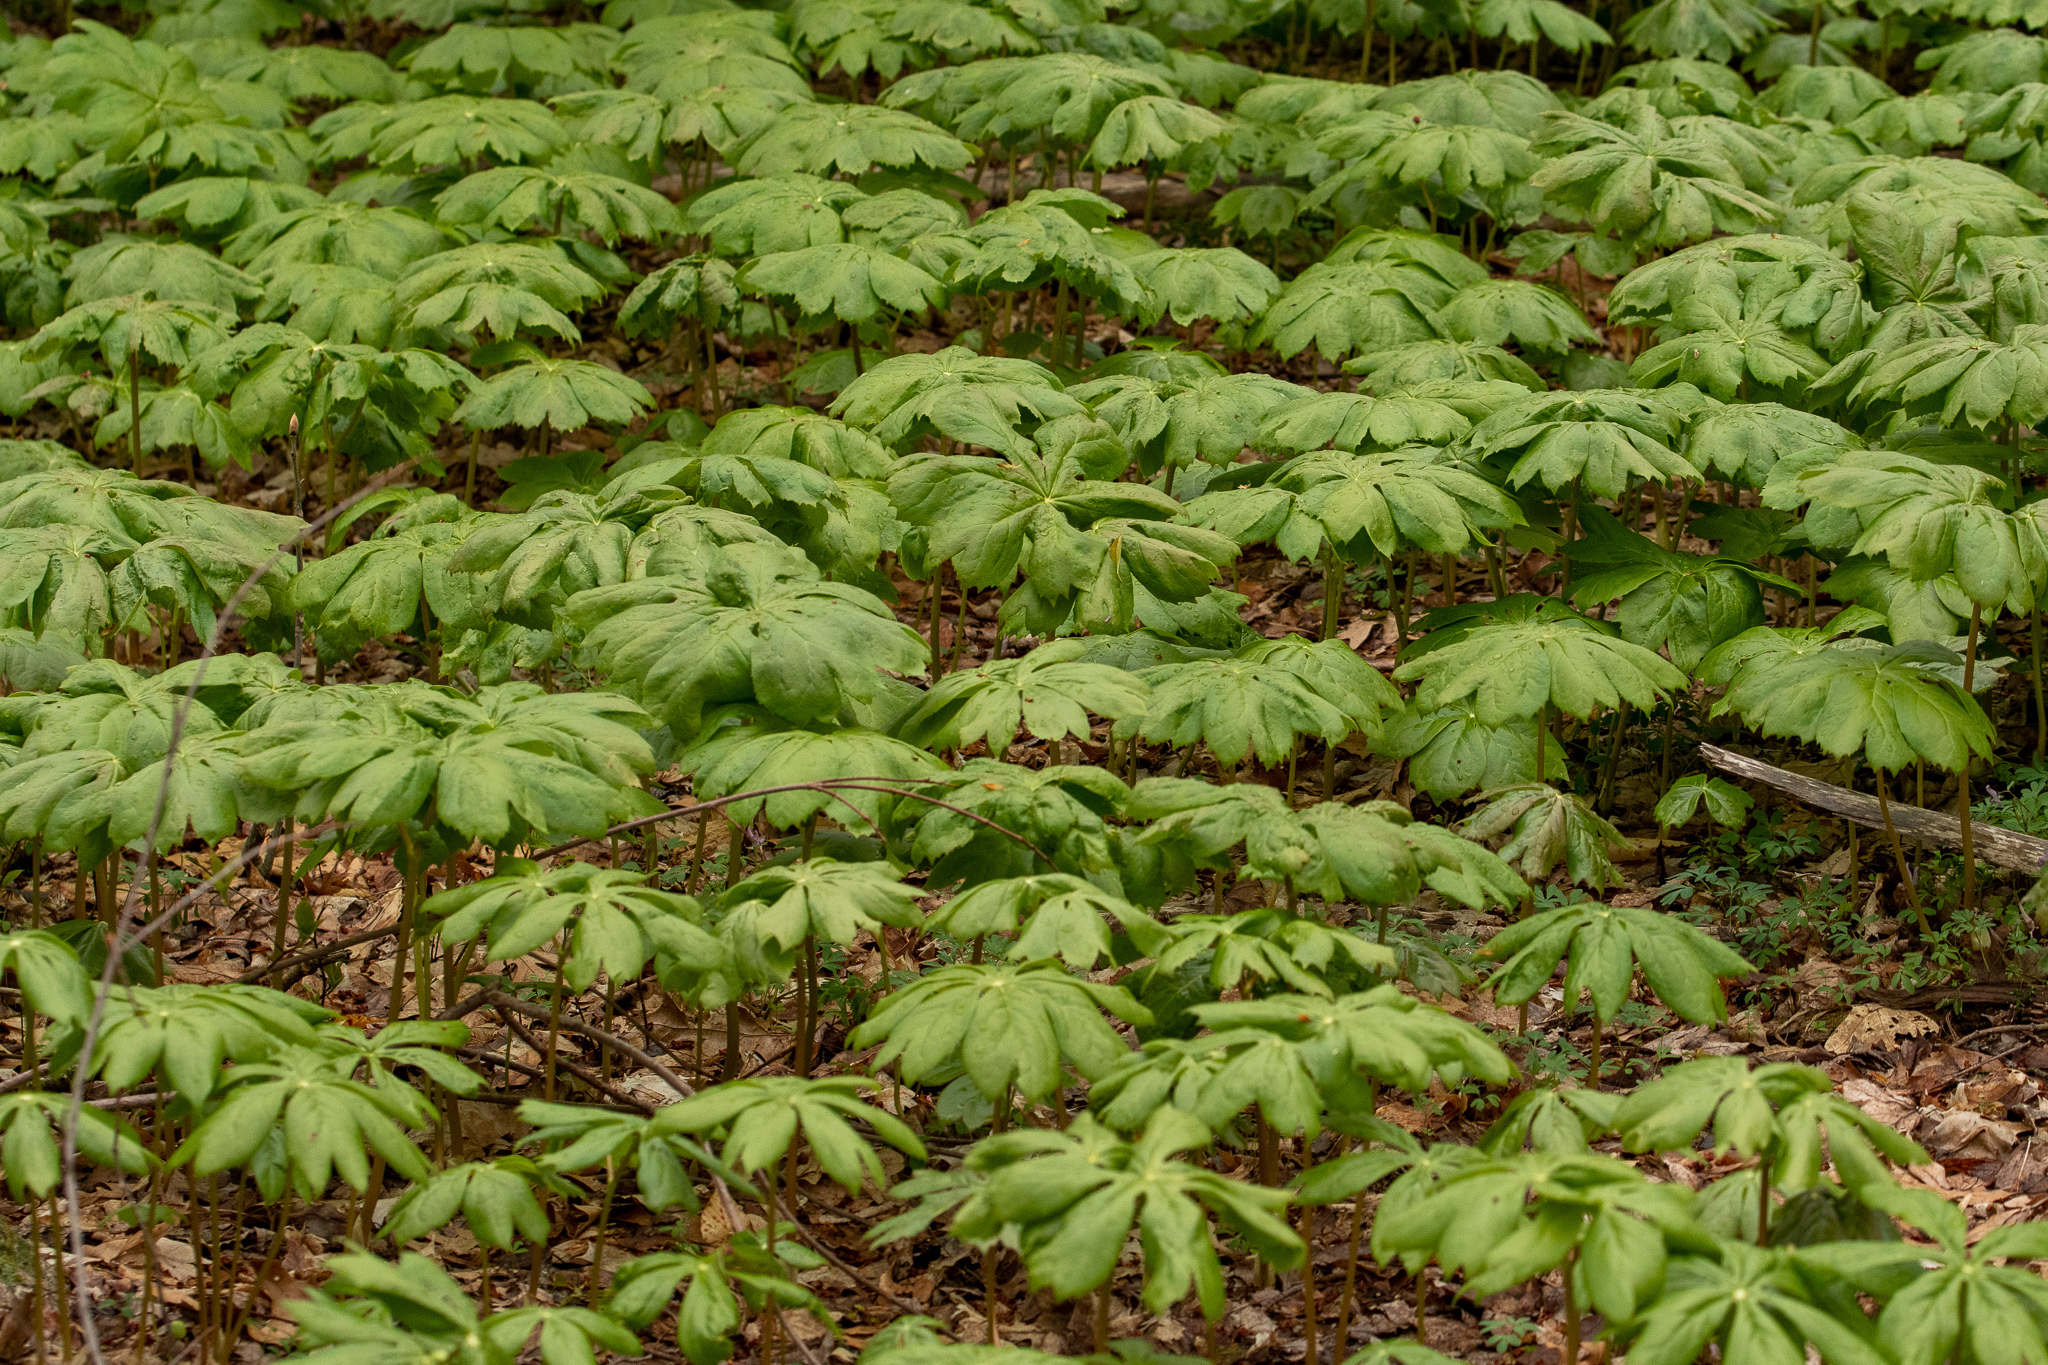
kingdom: Plantae
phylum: Tracheophyta
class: Magnoliopsida
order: Ranunculales
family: Berberidaceae
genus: Podophyllum
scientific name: Podophyllum peltatum
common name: Wild mandrake
